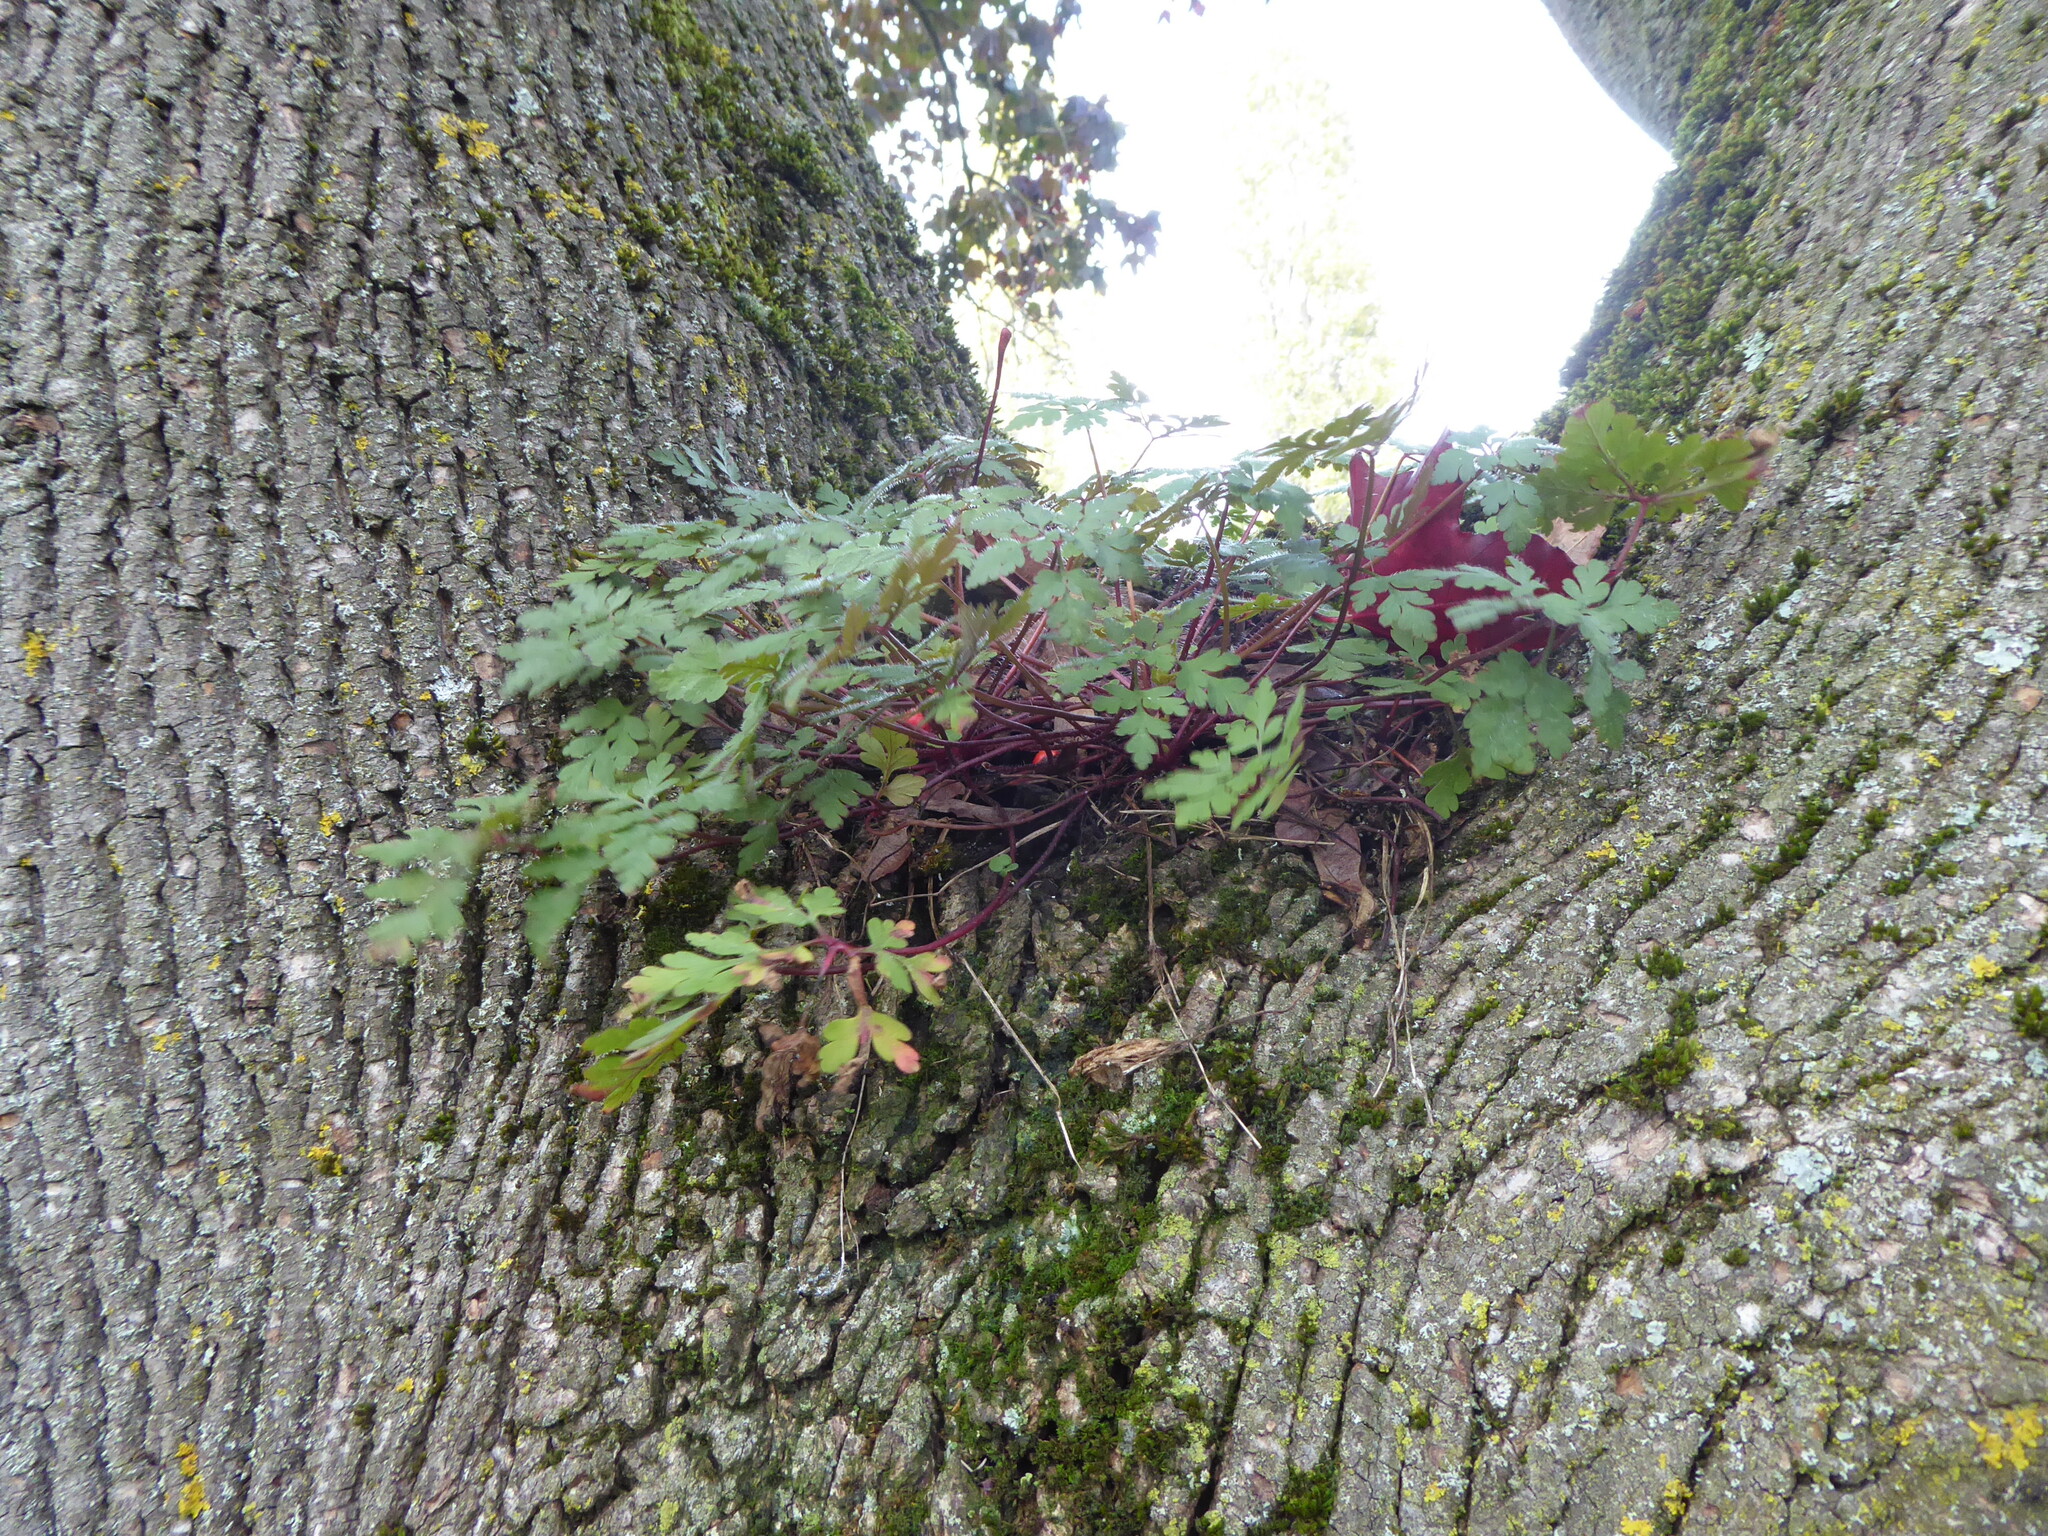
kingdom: Plantae
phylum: Tracheophyta
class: Magnoliopsida
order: Geraniales
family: Geraniaceae
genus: Geranium
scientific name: Geranium robertianum
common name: Herb-robert
